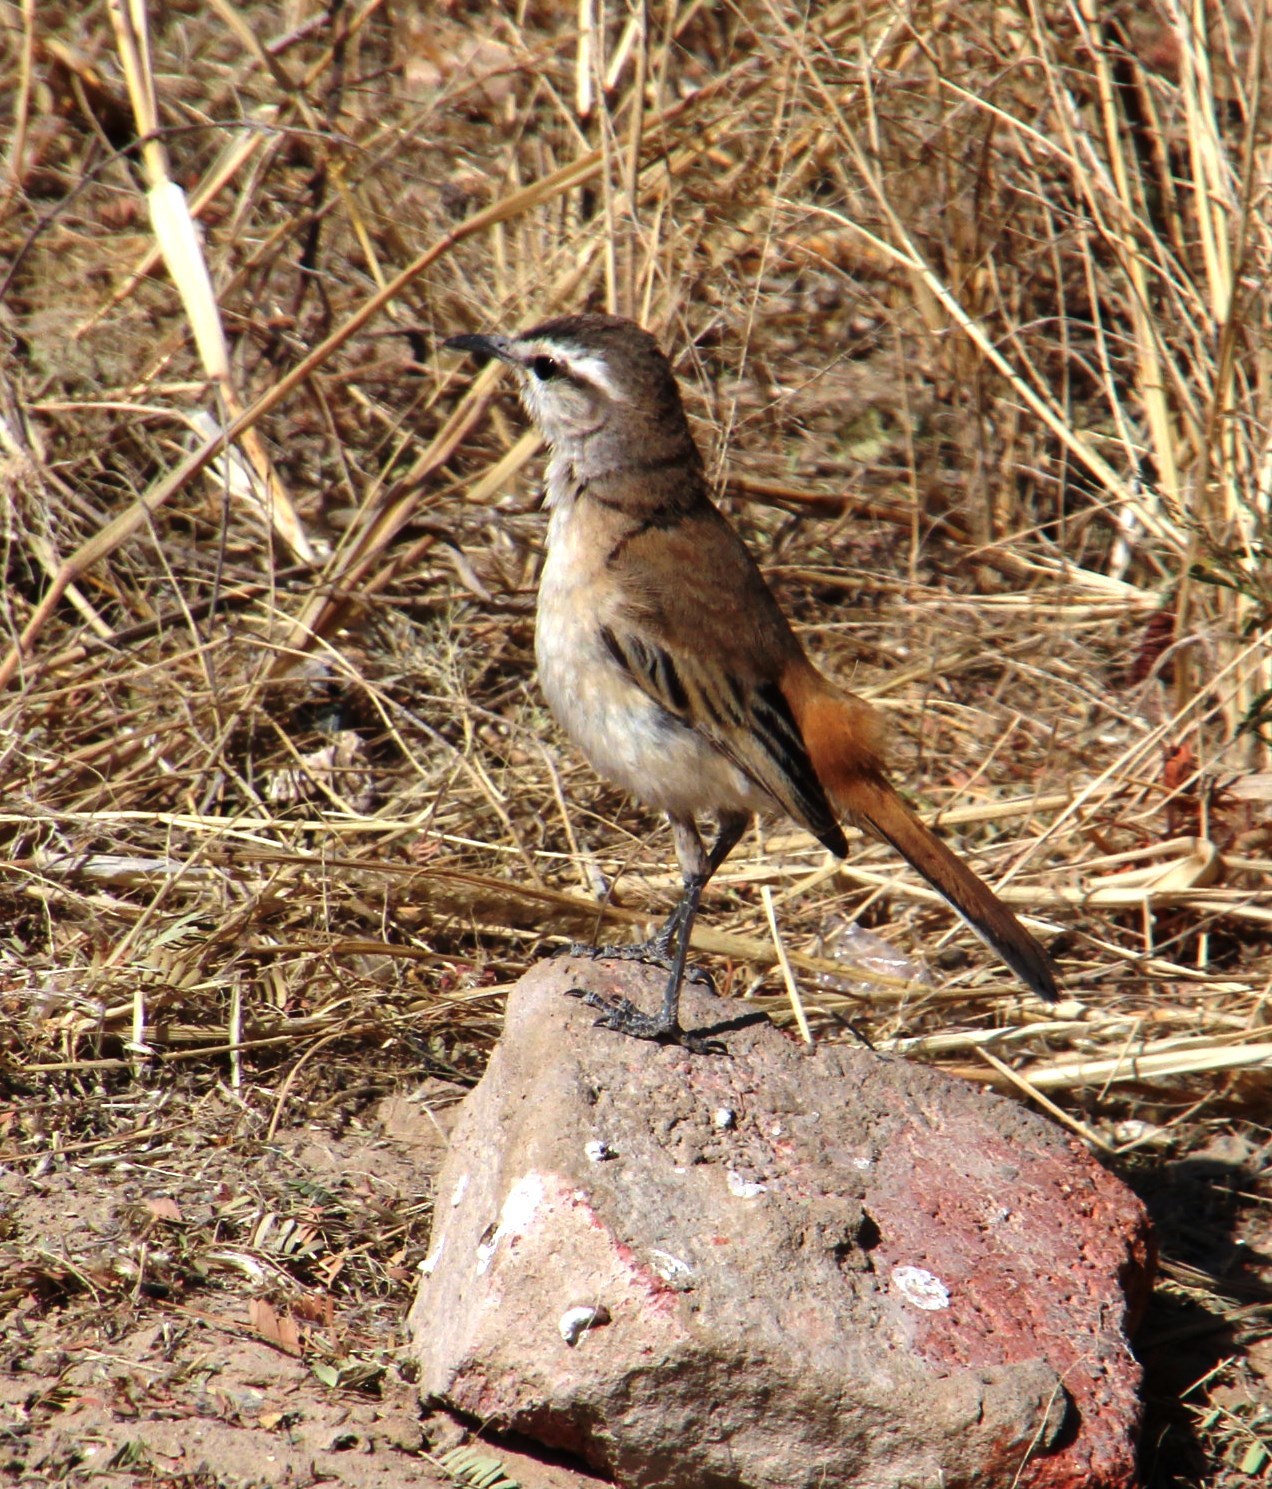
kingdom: Animalia
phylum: Chordata
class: Aves
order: Passeriformes
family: Muscicapidae
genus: Erythropygia
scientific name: Erythropygia paena
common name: Kalahari scrub robin
